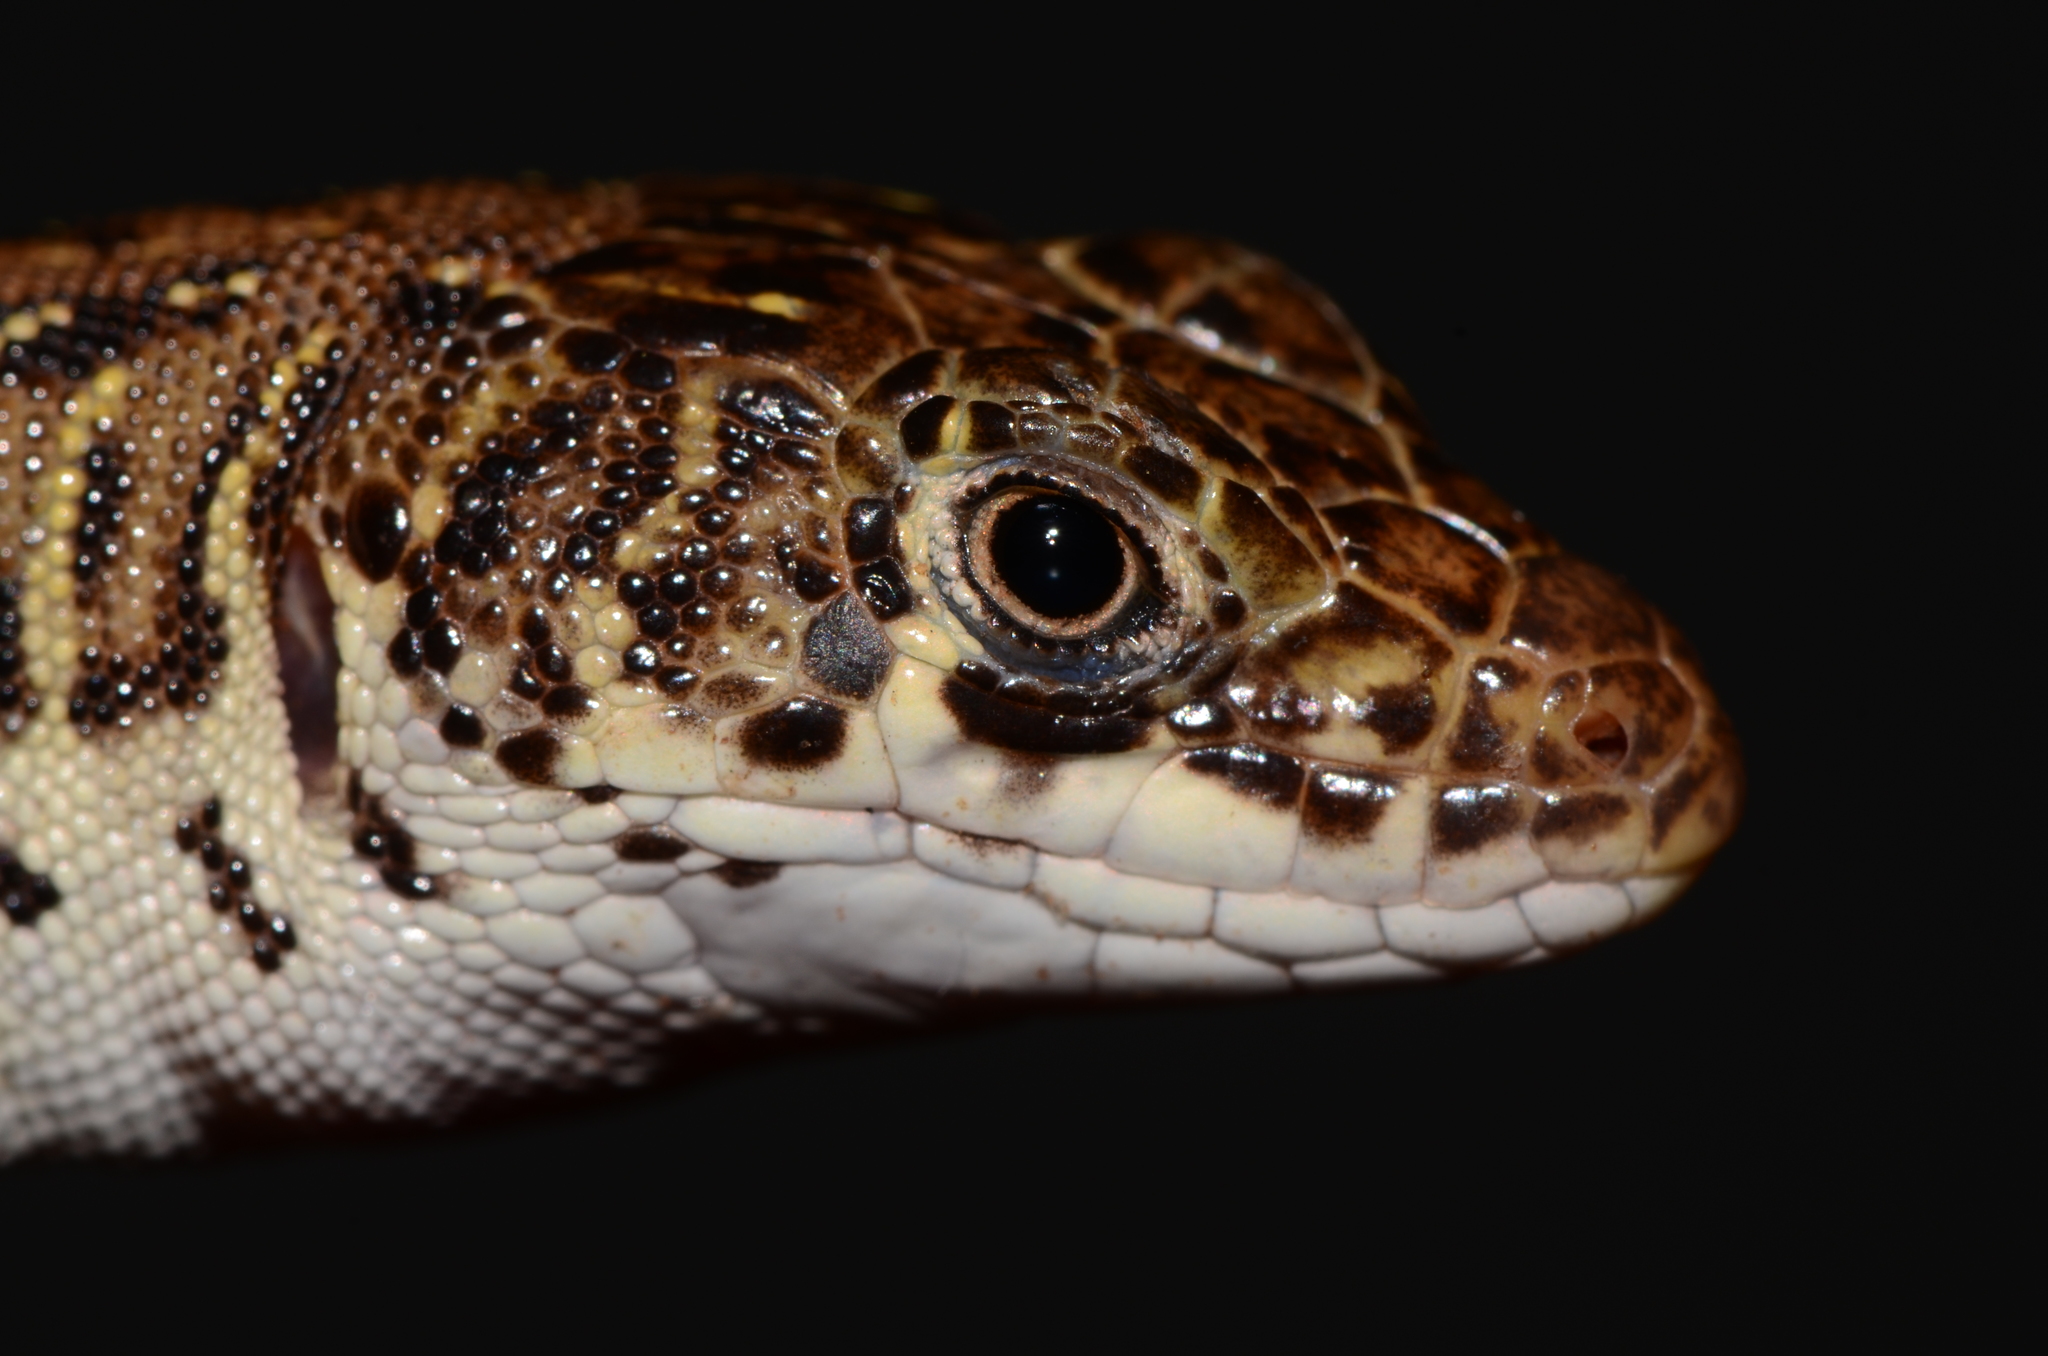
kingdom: Animalia
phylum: Chordata
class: Squamata
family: Lacertidae
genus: Nucras
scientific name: Nucras intertexta
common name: Spotted sandveld lizard
